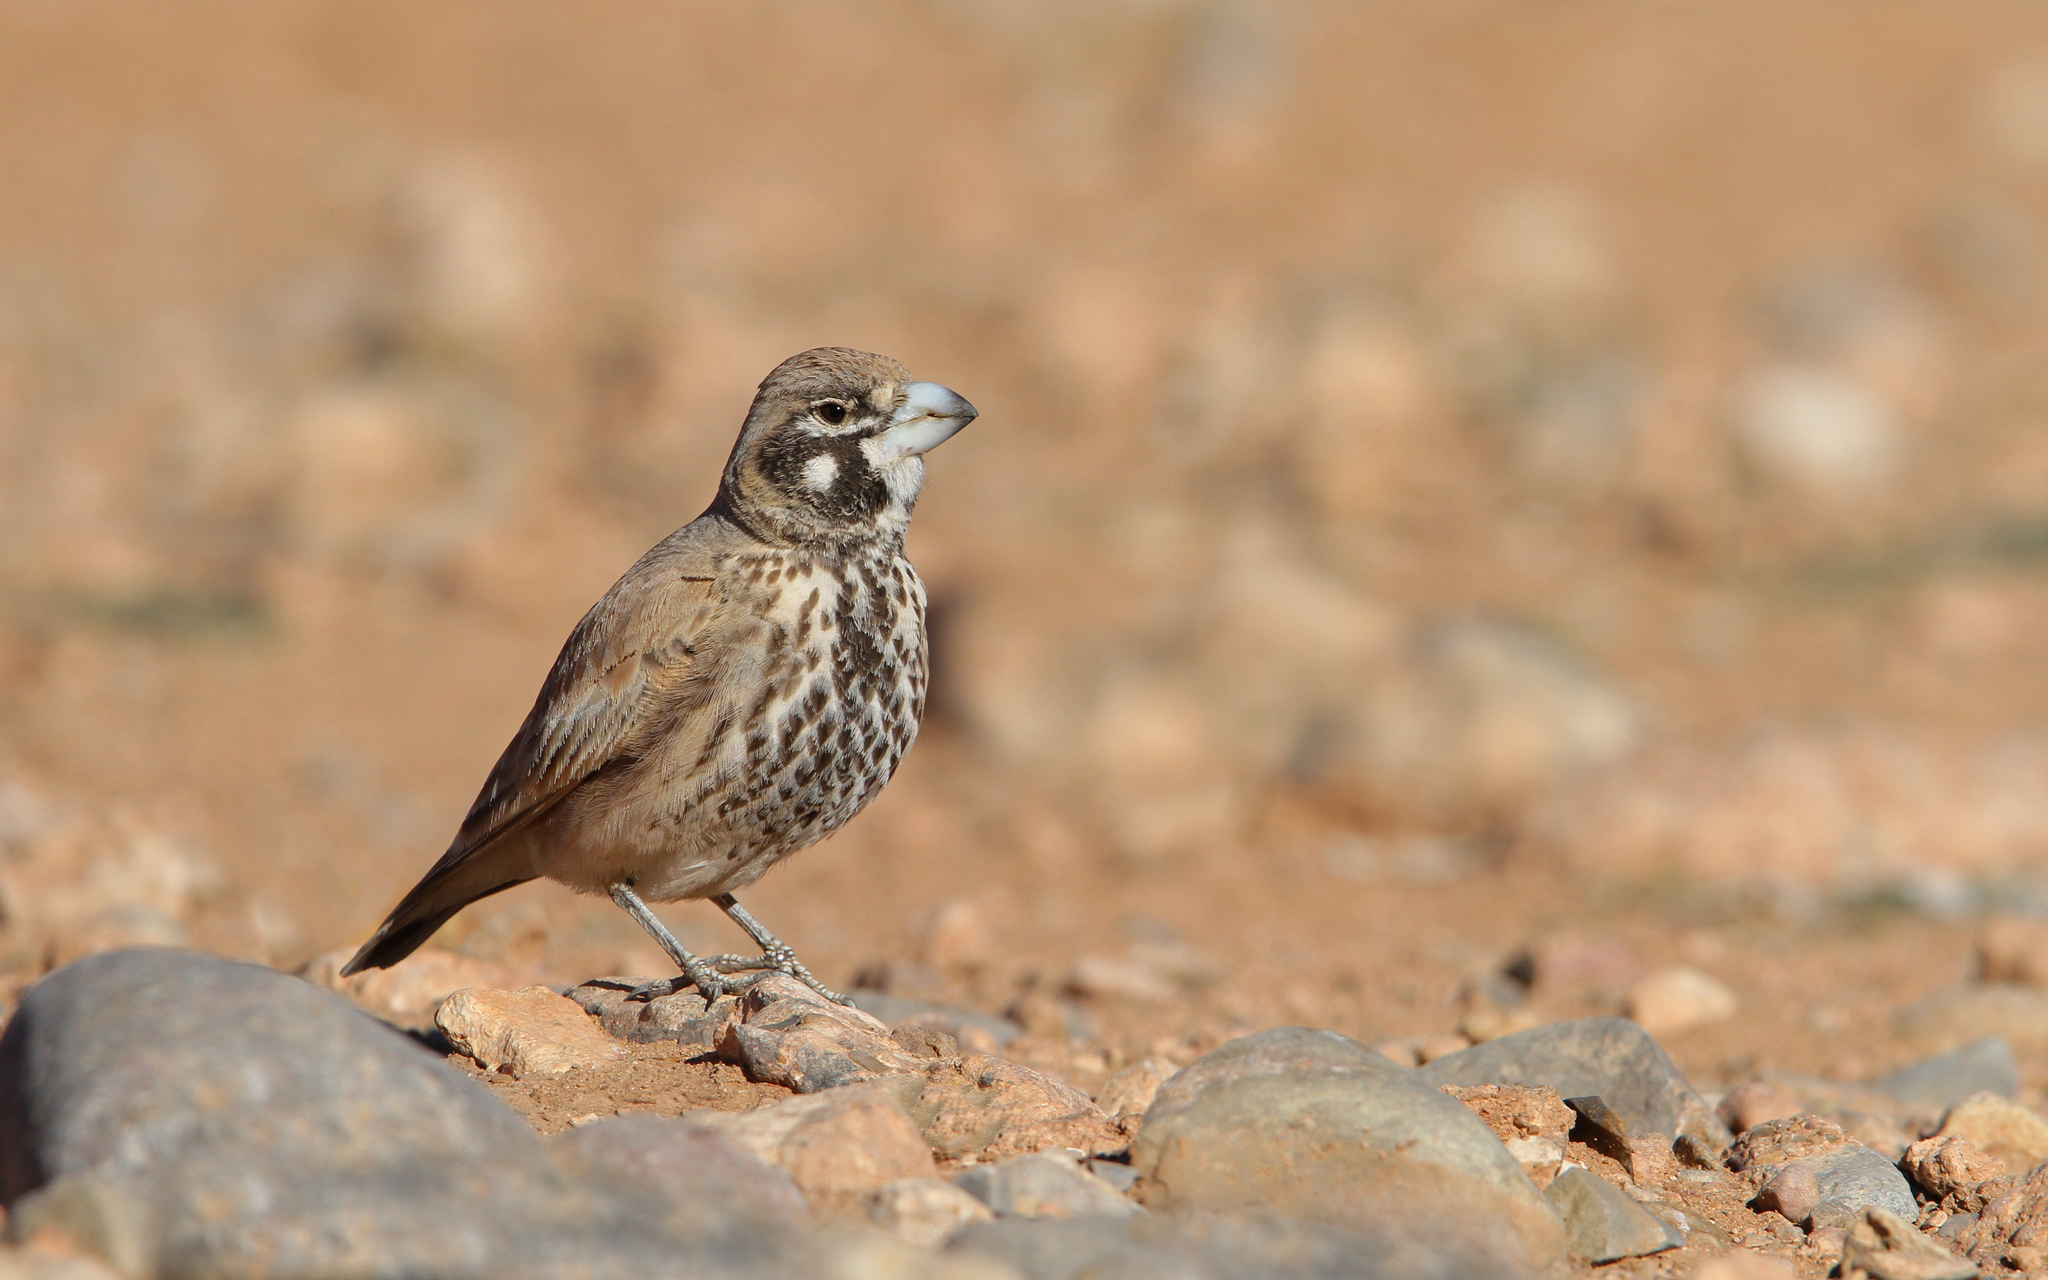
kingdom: Animalia
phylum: Chordata
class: Aves
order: Passeriformes
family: Alaudidae
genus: Ramphocoris
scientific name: Ramphocoris clotbey
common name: Thick-billed lark
